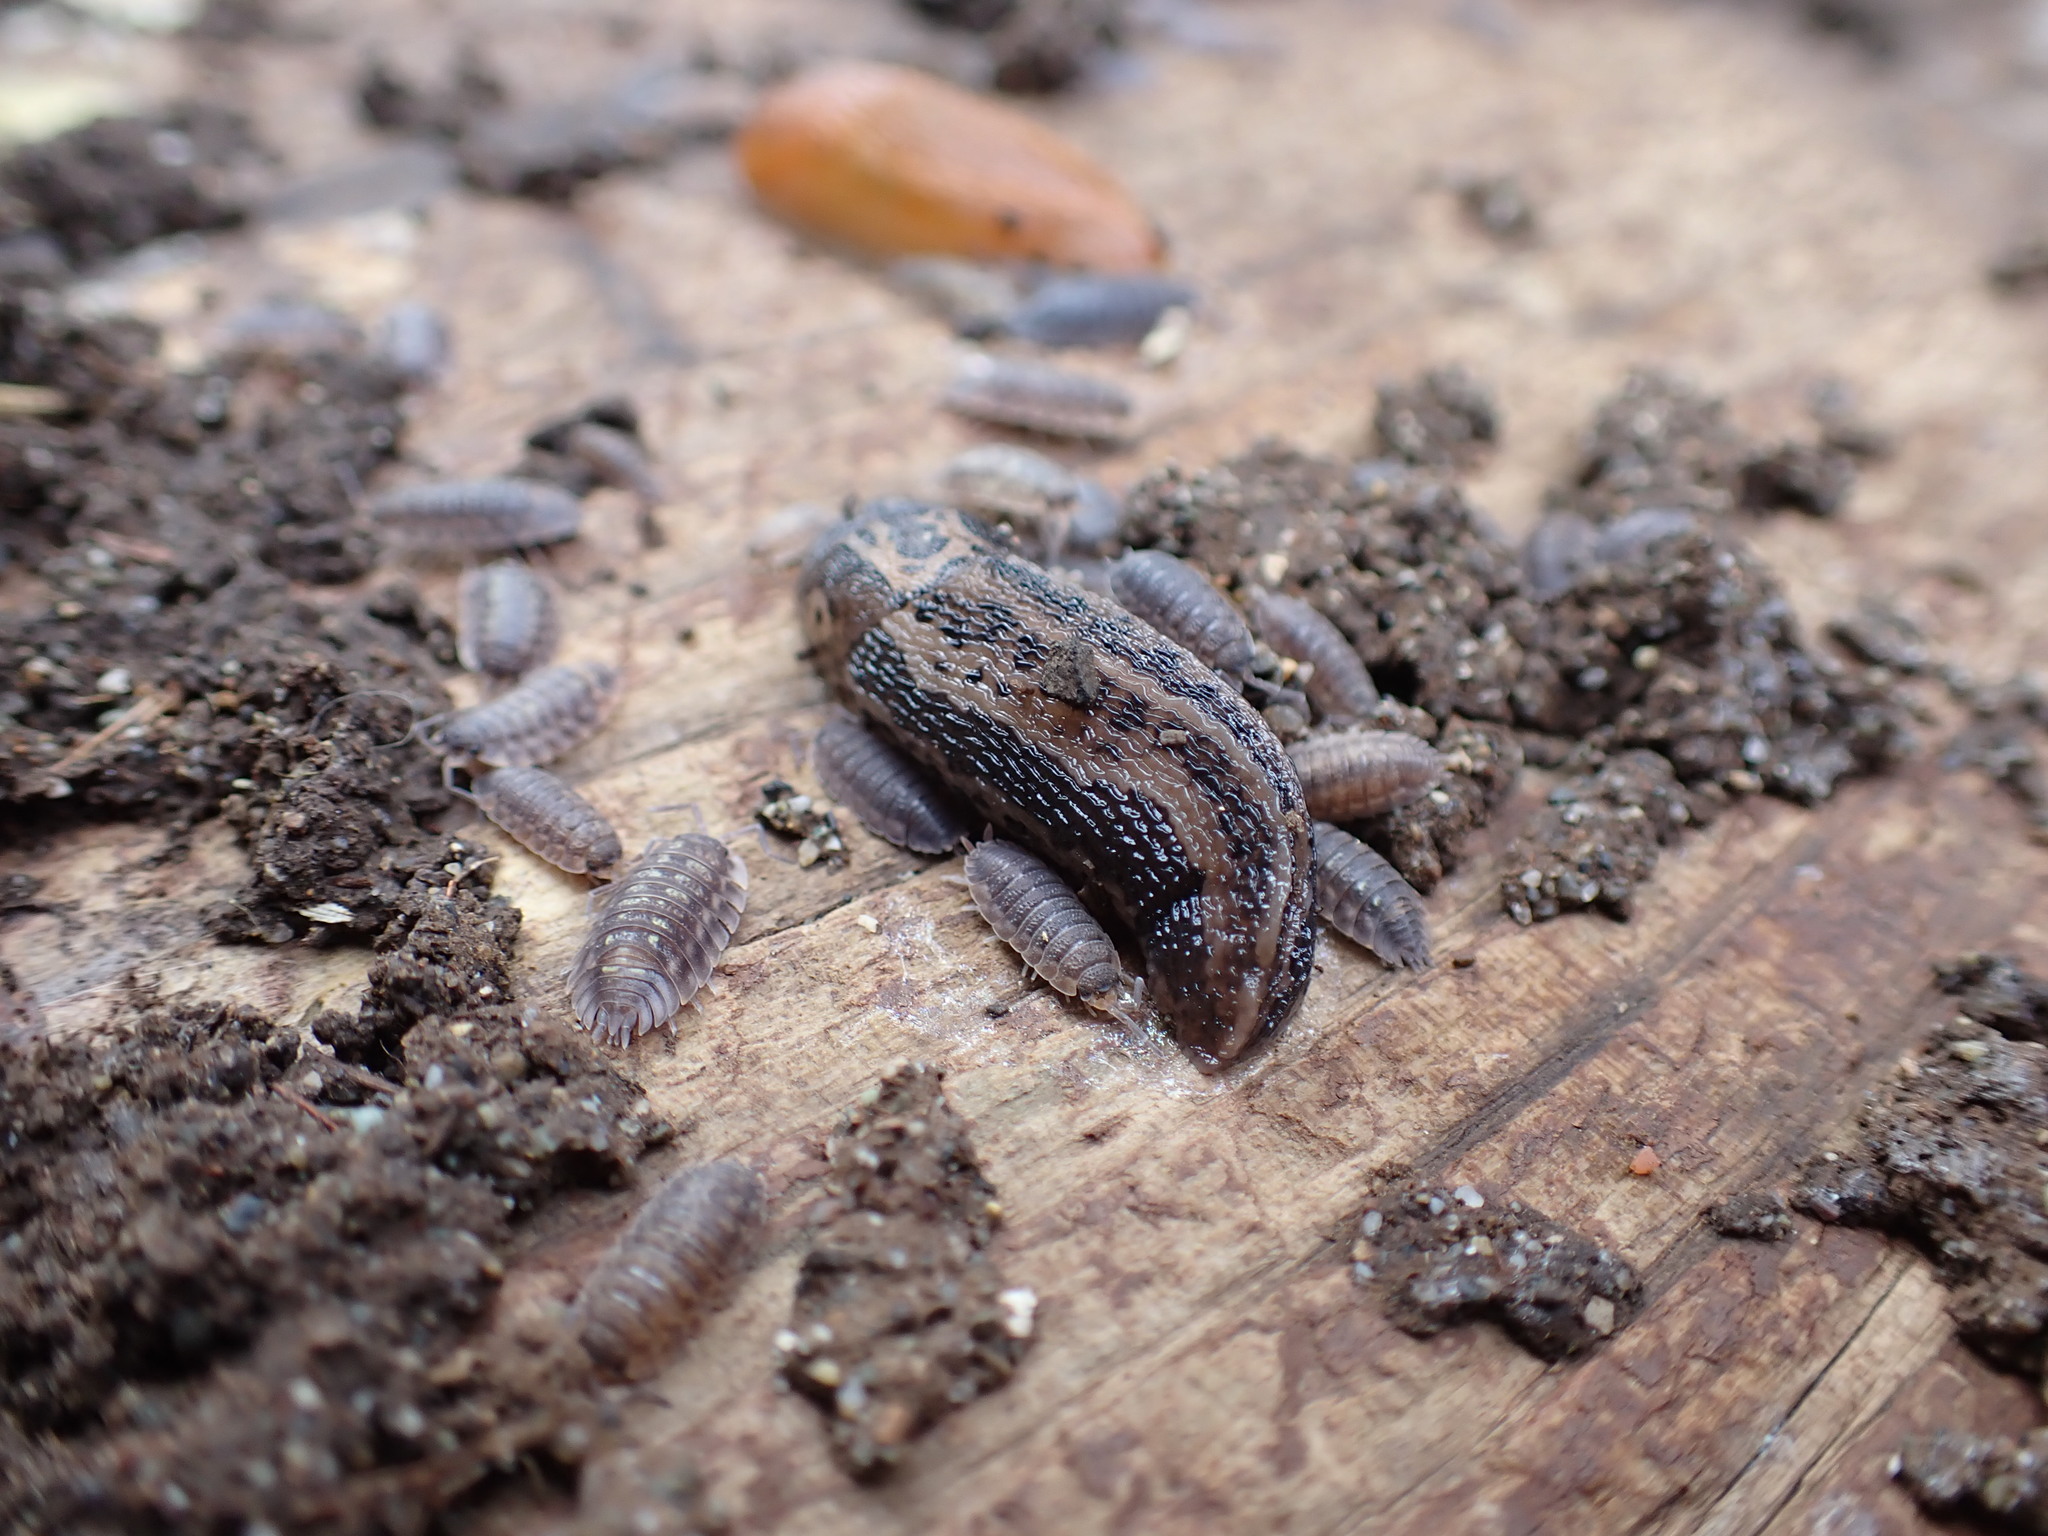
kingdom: Animalia
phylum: Mollusca
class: Gastropoda
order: Stylommatophora
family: Limacidae
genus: Limax
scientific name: Limax maximus
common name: Great grey slug
